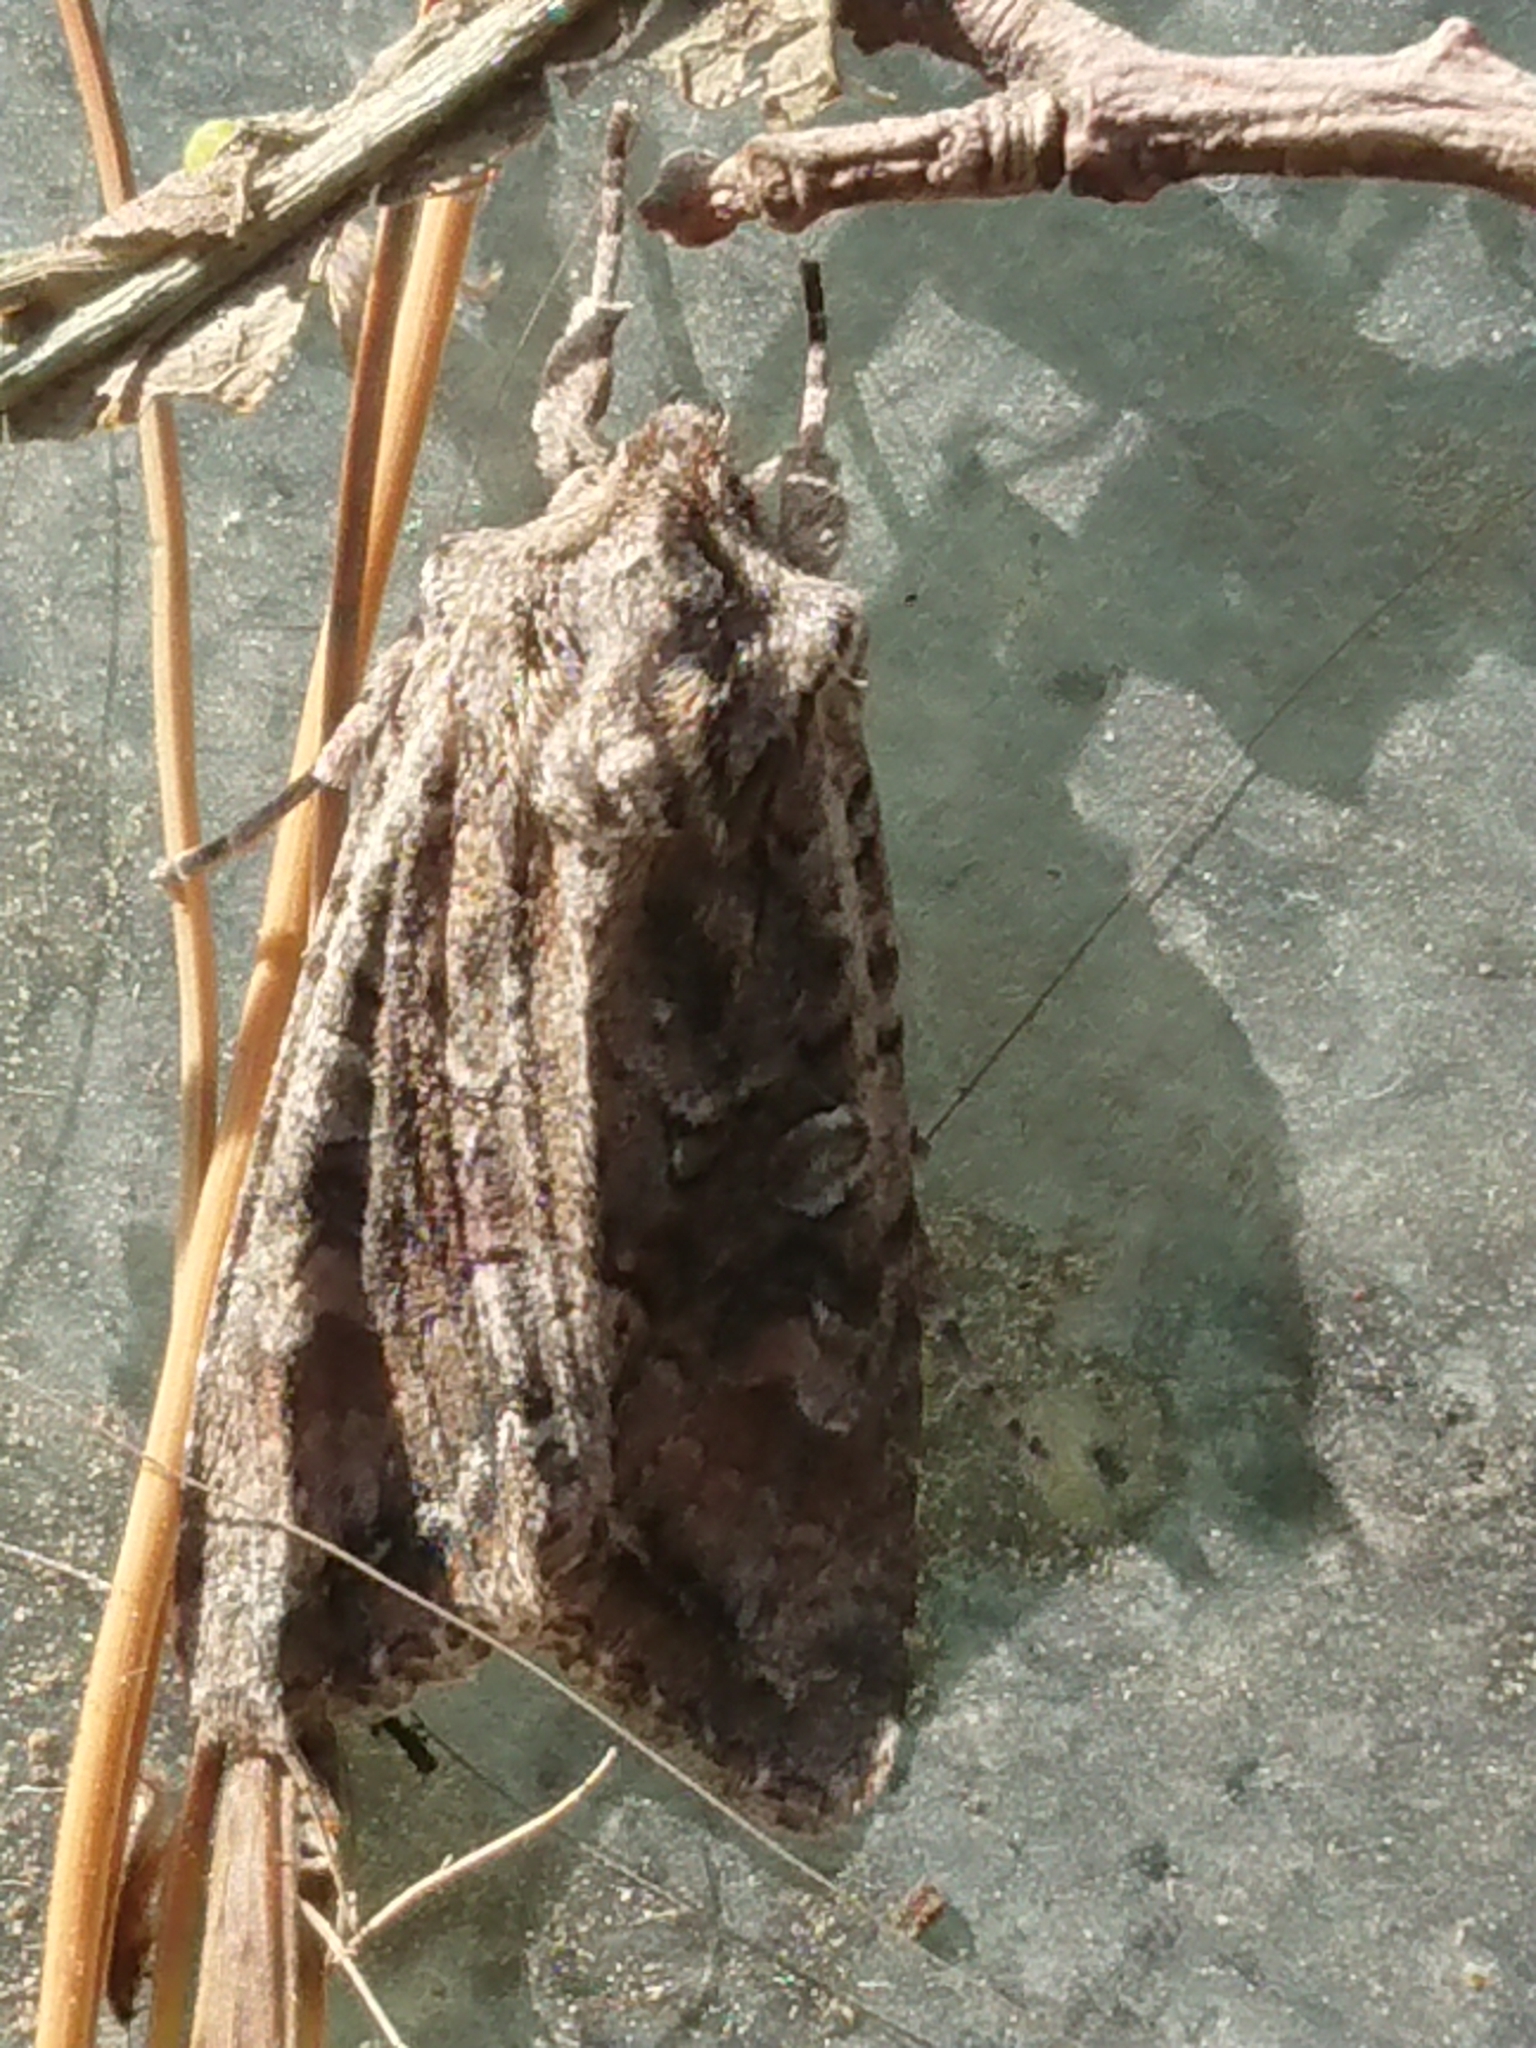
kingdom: Animalia
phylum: Arthropoda
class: Insecta
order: Lepidoptera
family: Noctuidae
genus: Ichneutica
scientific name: Ichneutica mutans
